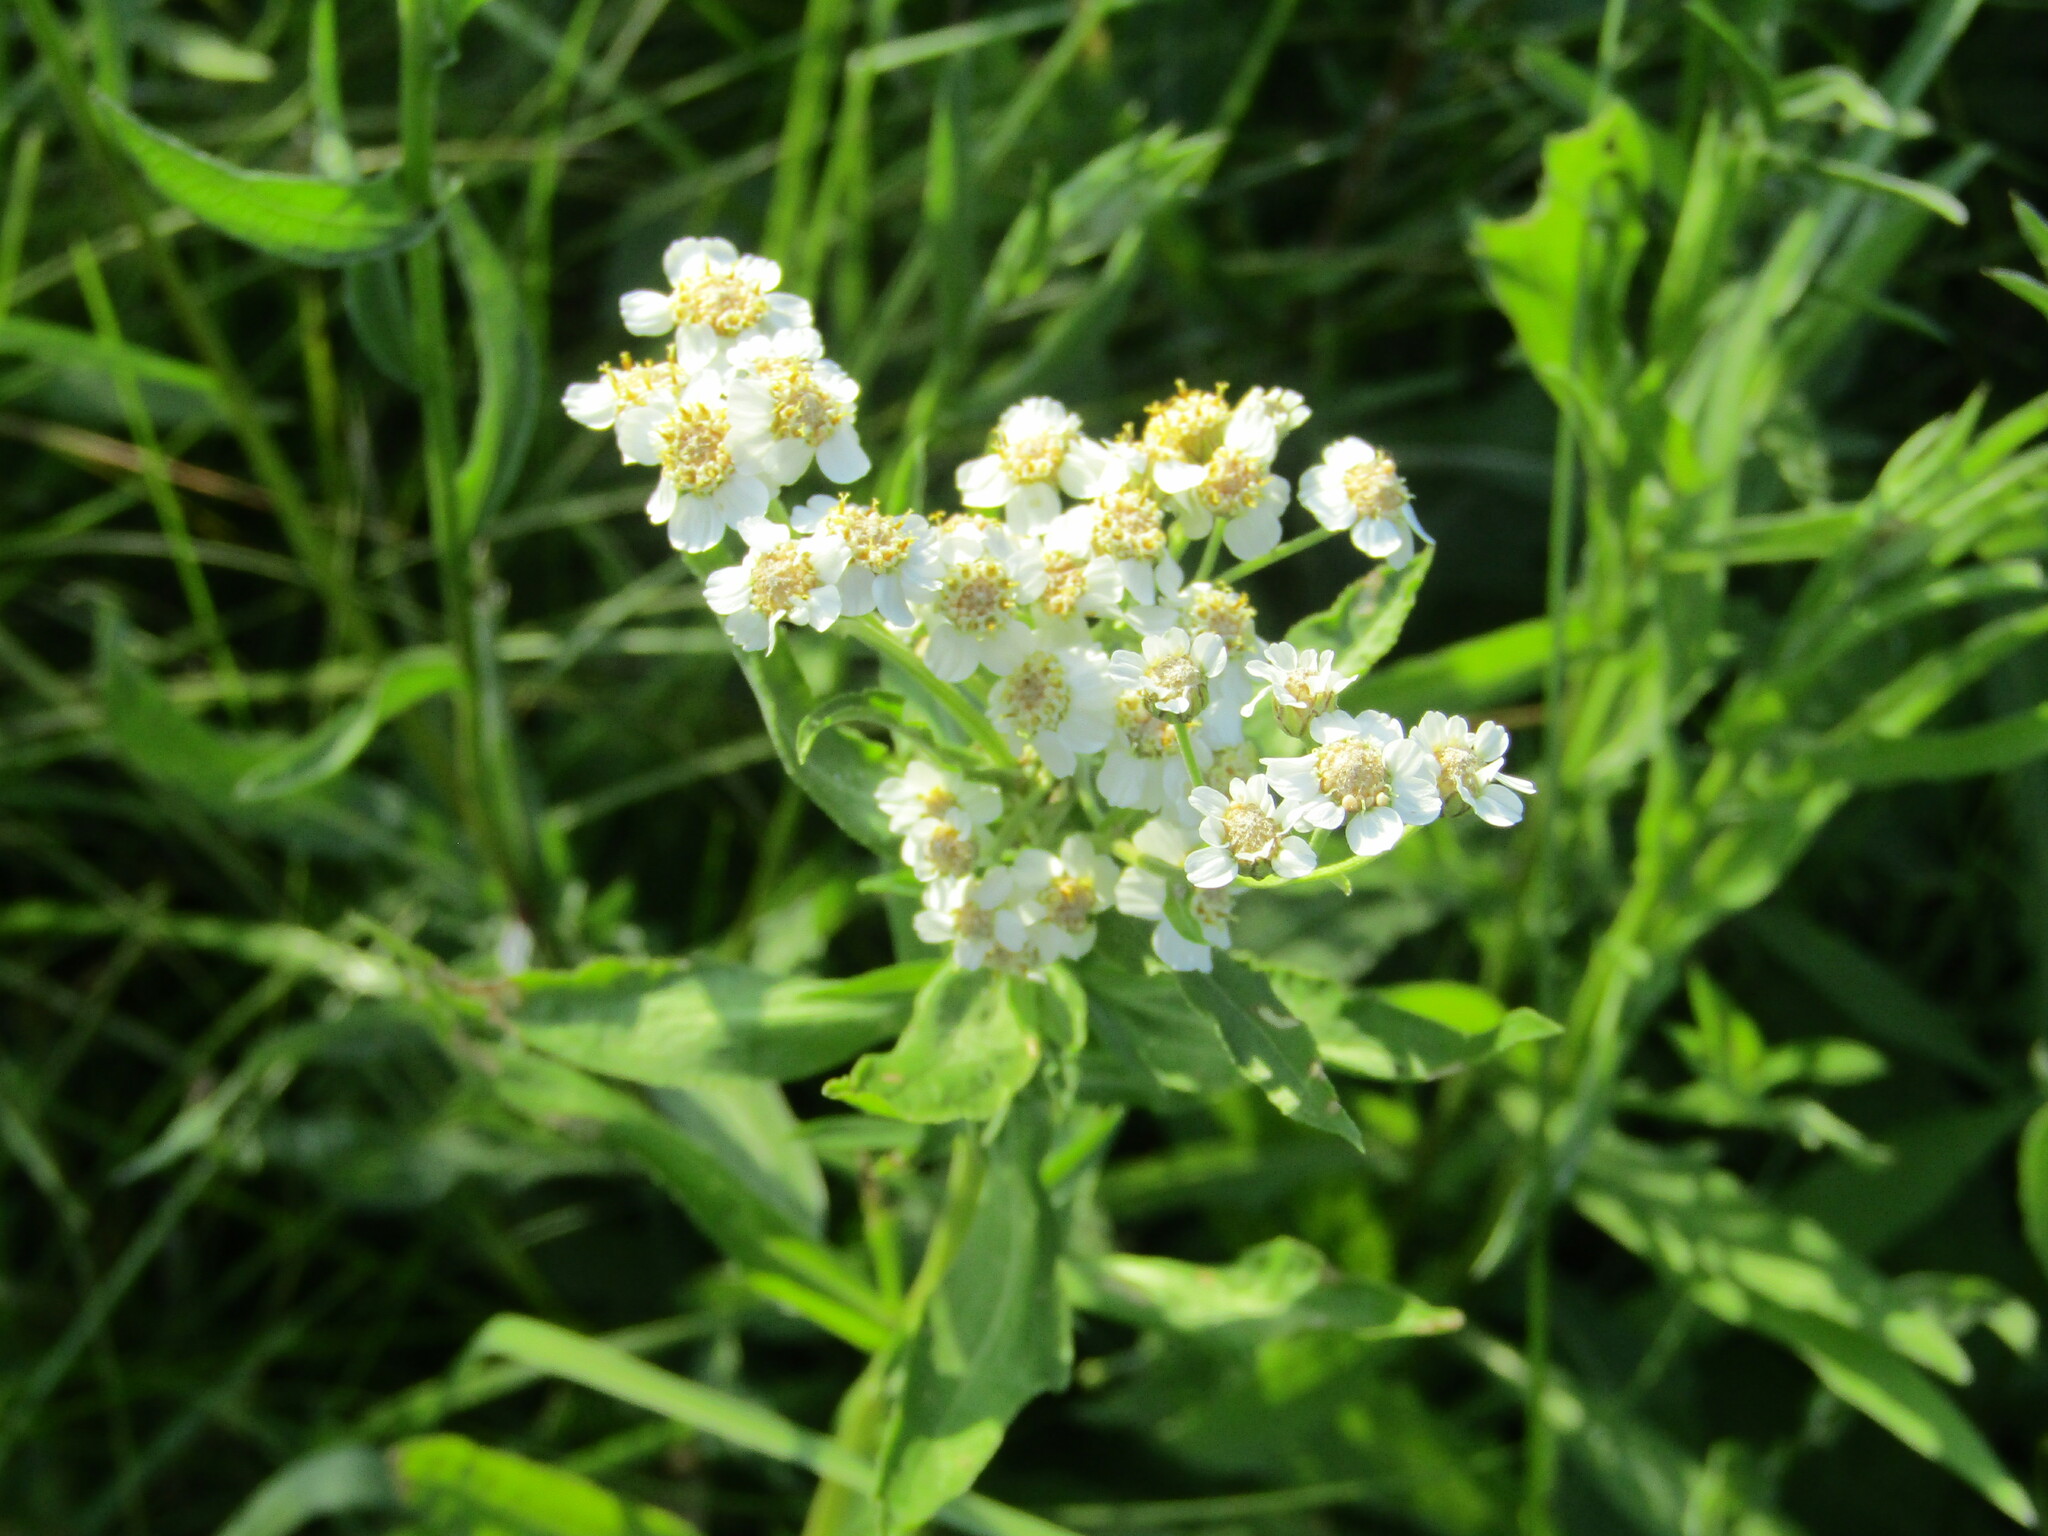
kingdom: Plantae
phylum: Tracheophyta
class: Magnoliopsida
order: Asterales
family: Asteraceae
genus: Achillea
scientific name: Achillea salicifolia
